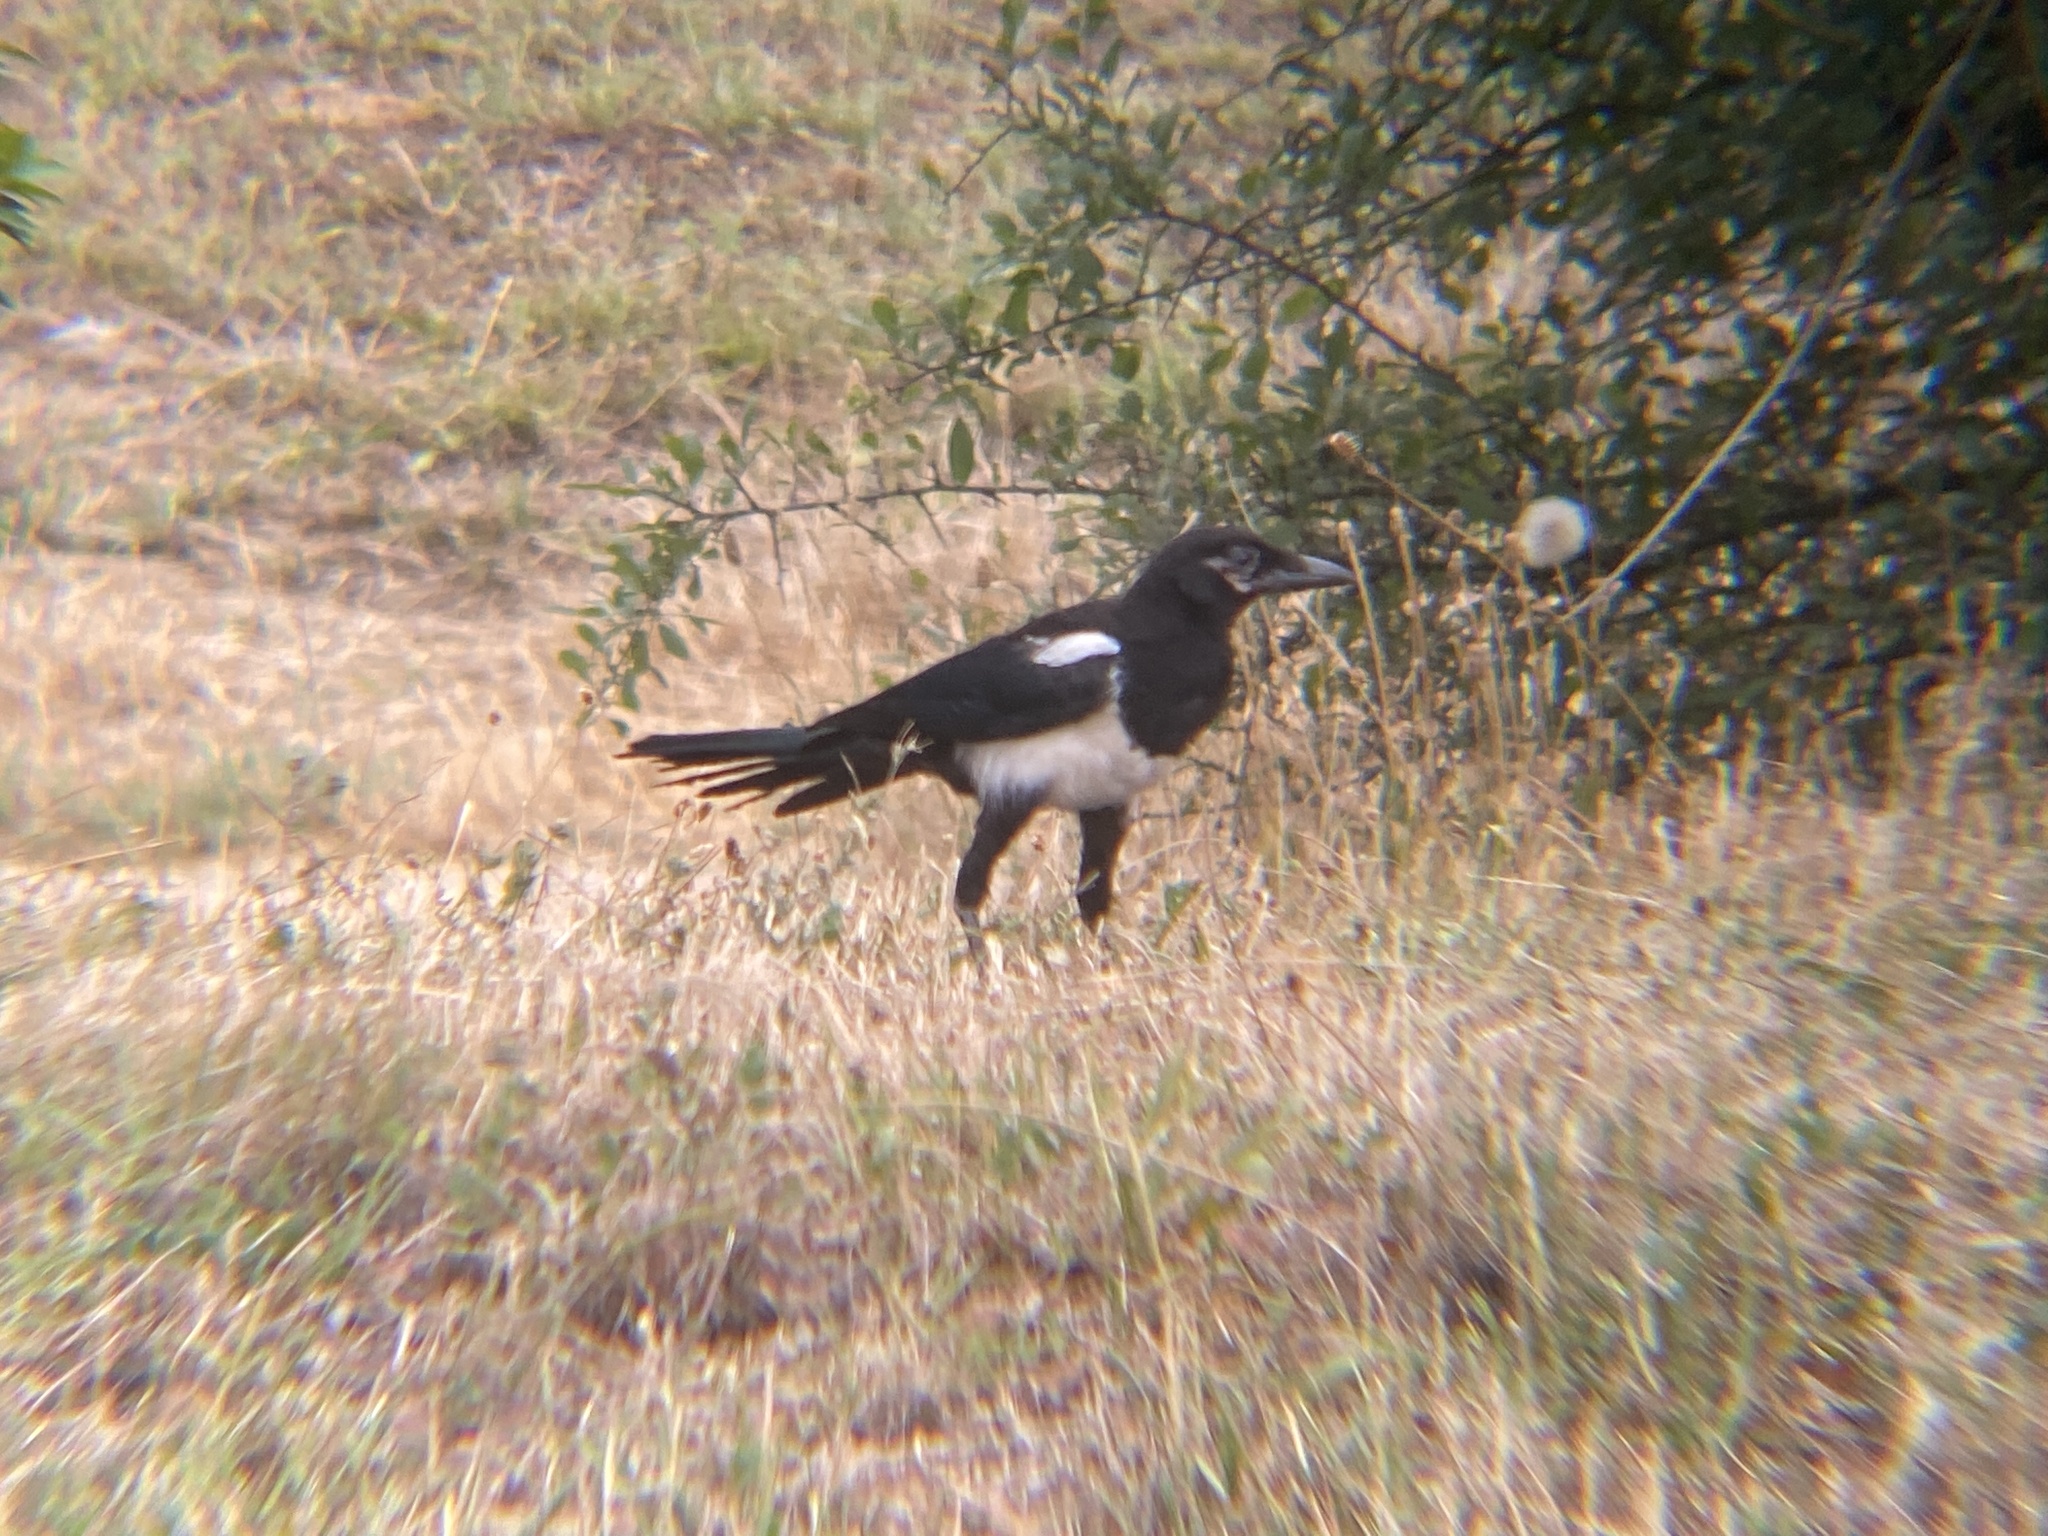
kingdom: Animalia
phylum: Chordata
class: Aves
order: Passeriformes
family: Corvidae
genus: Pica
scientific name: Pica pica
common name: Eurasian magpie
